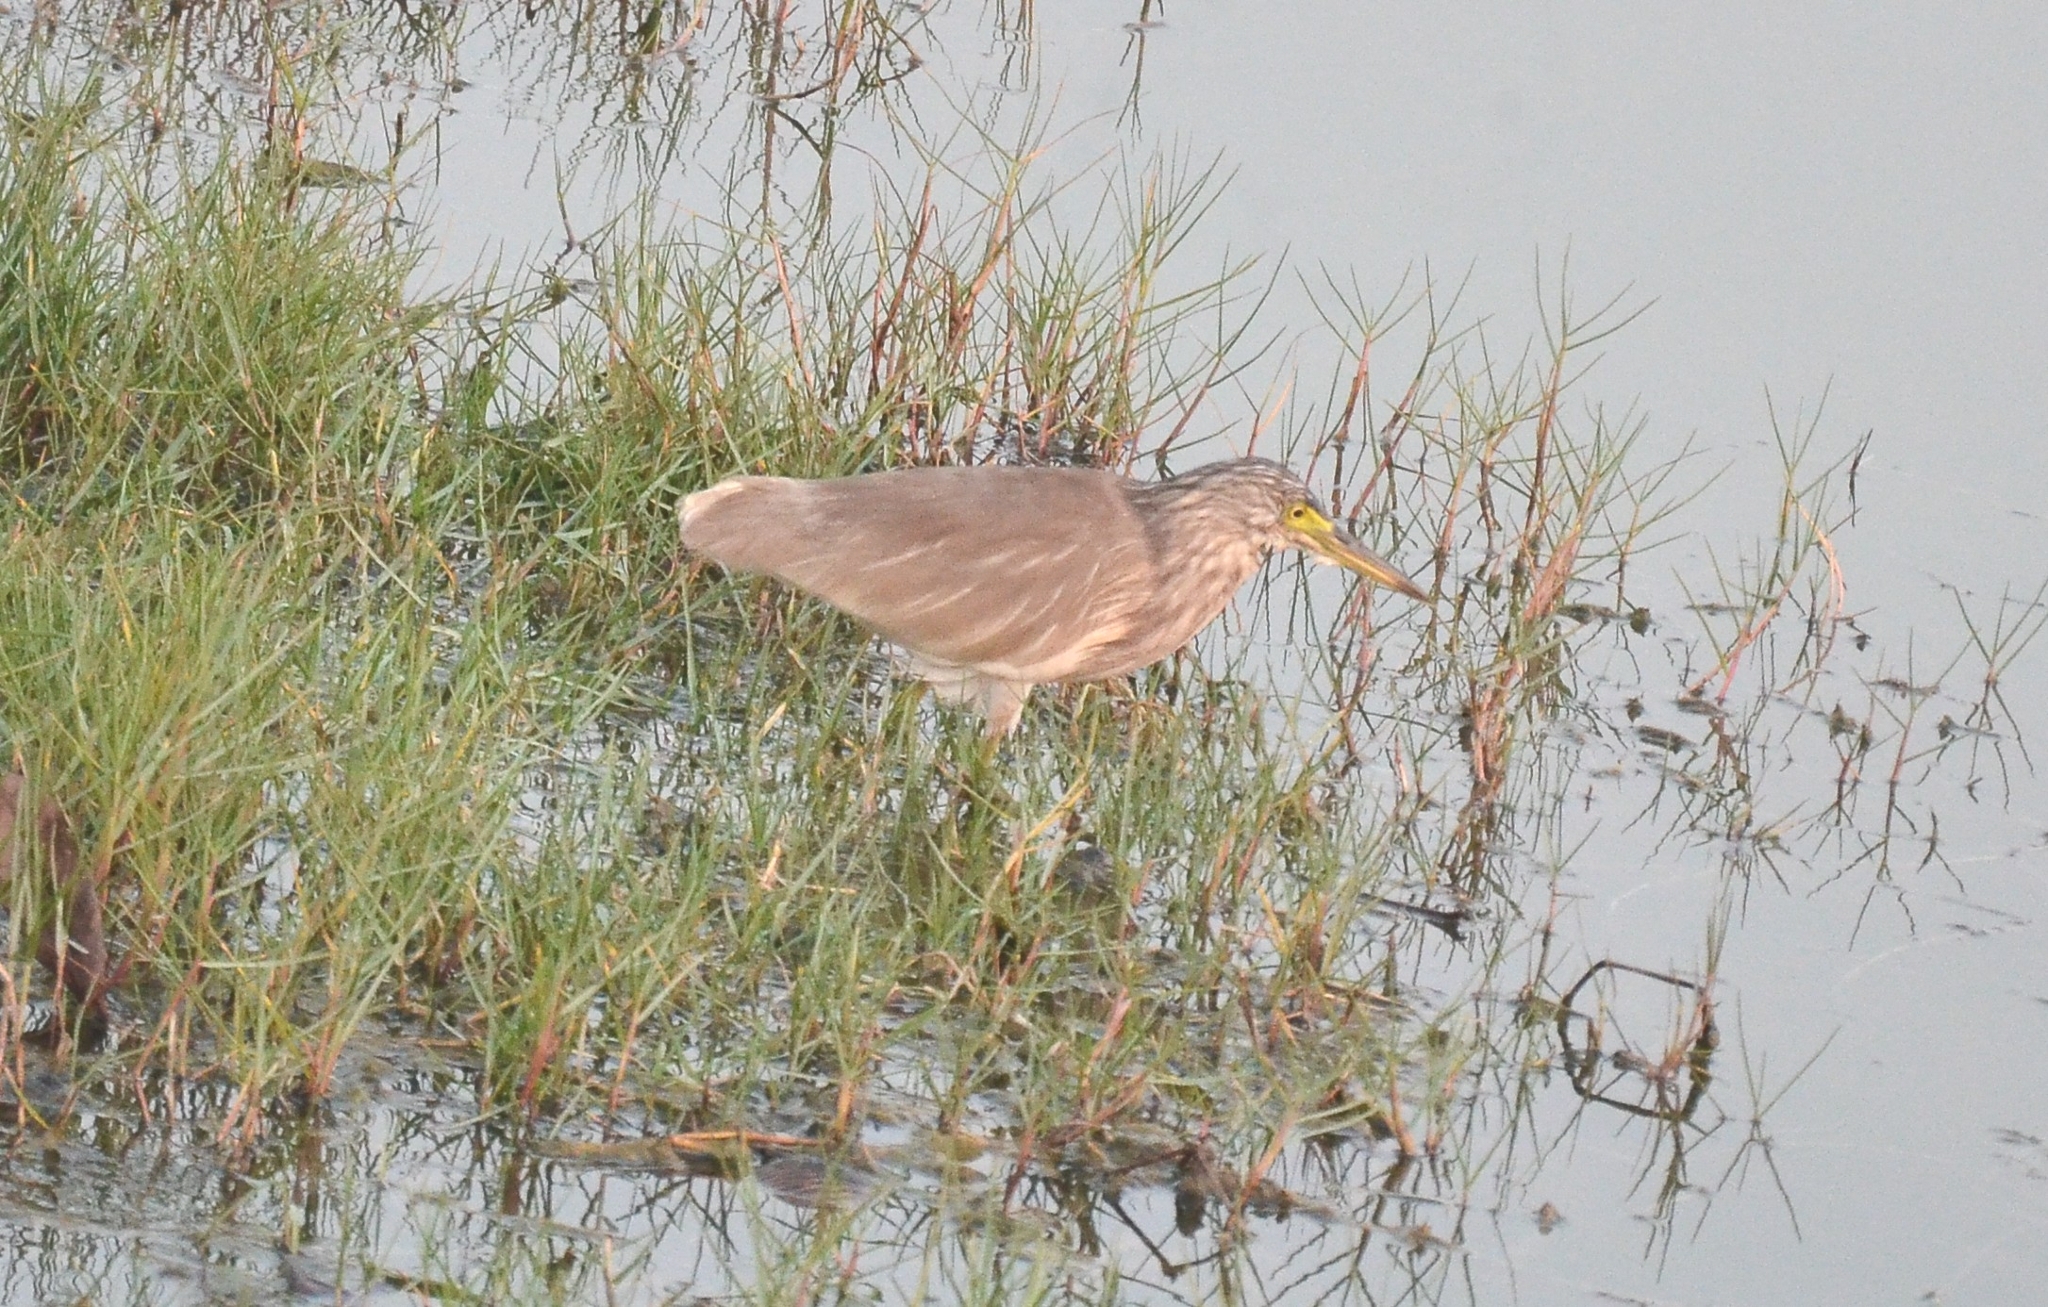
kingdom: Animalia
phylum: Chordata
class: Aves
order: Pelecaniformes
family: Ardeidae
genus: Ardeola
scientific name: Ardeola grayii
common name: Indian pond heron
